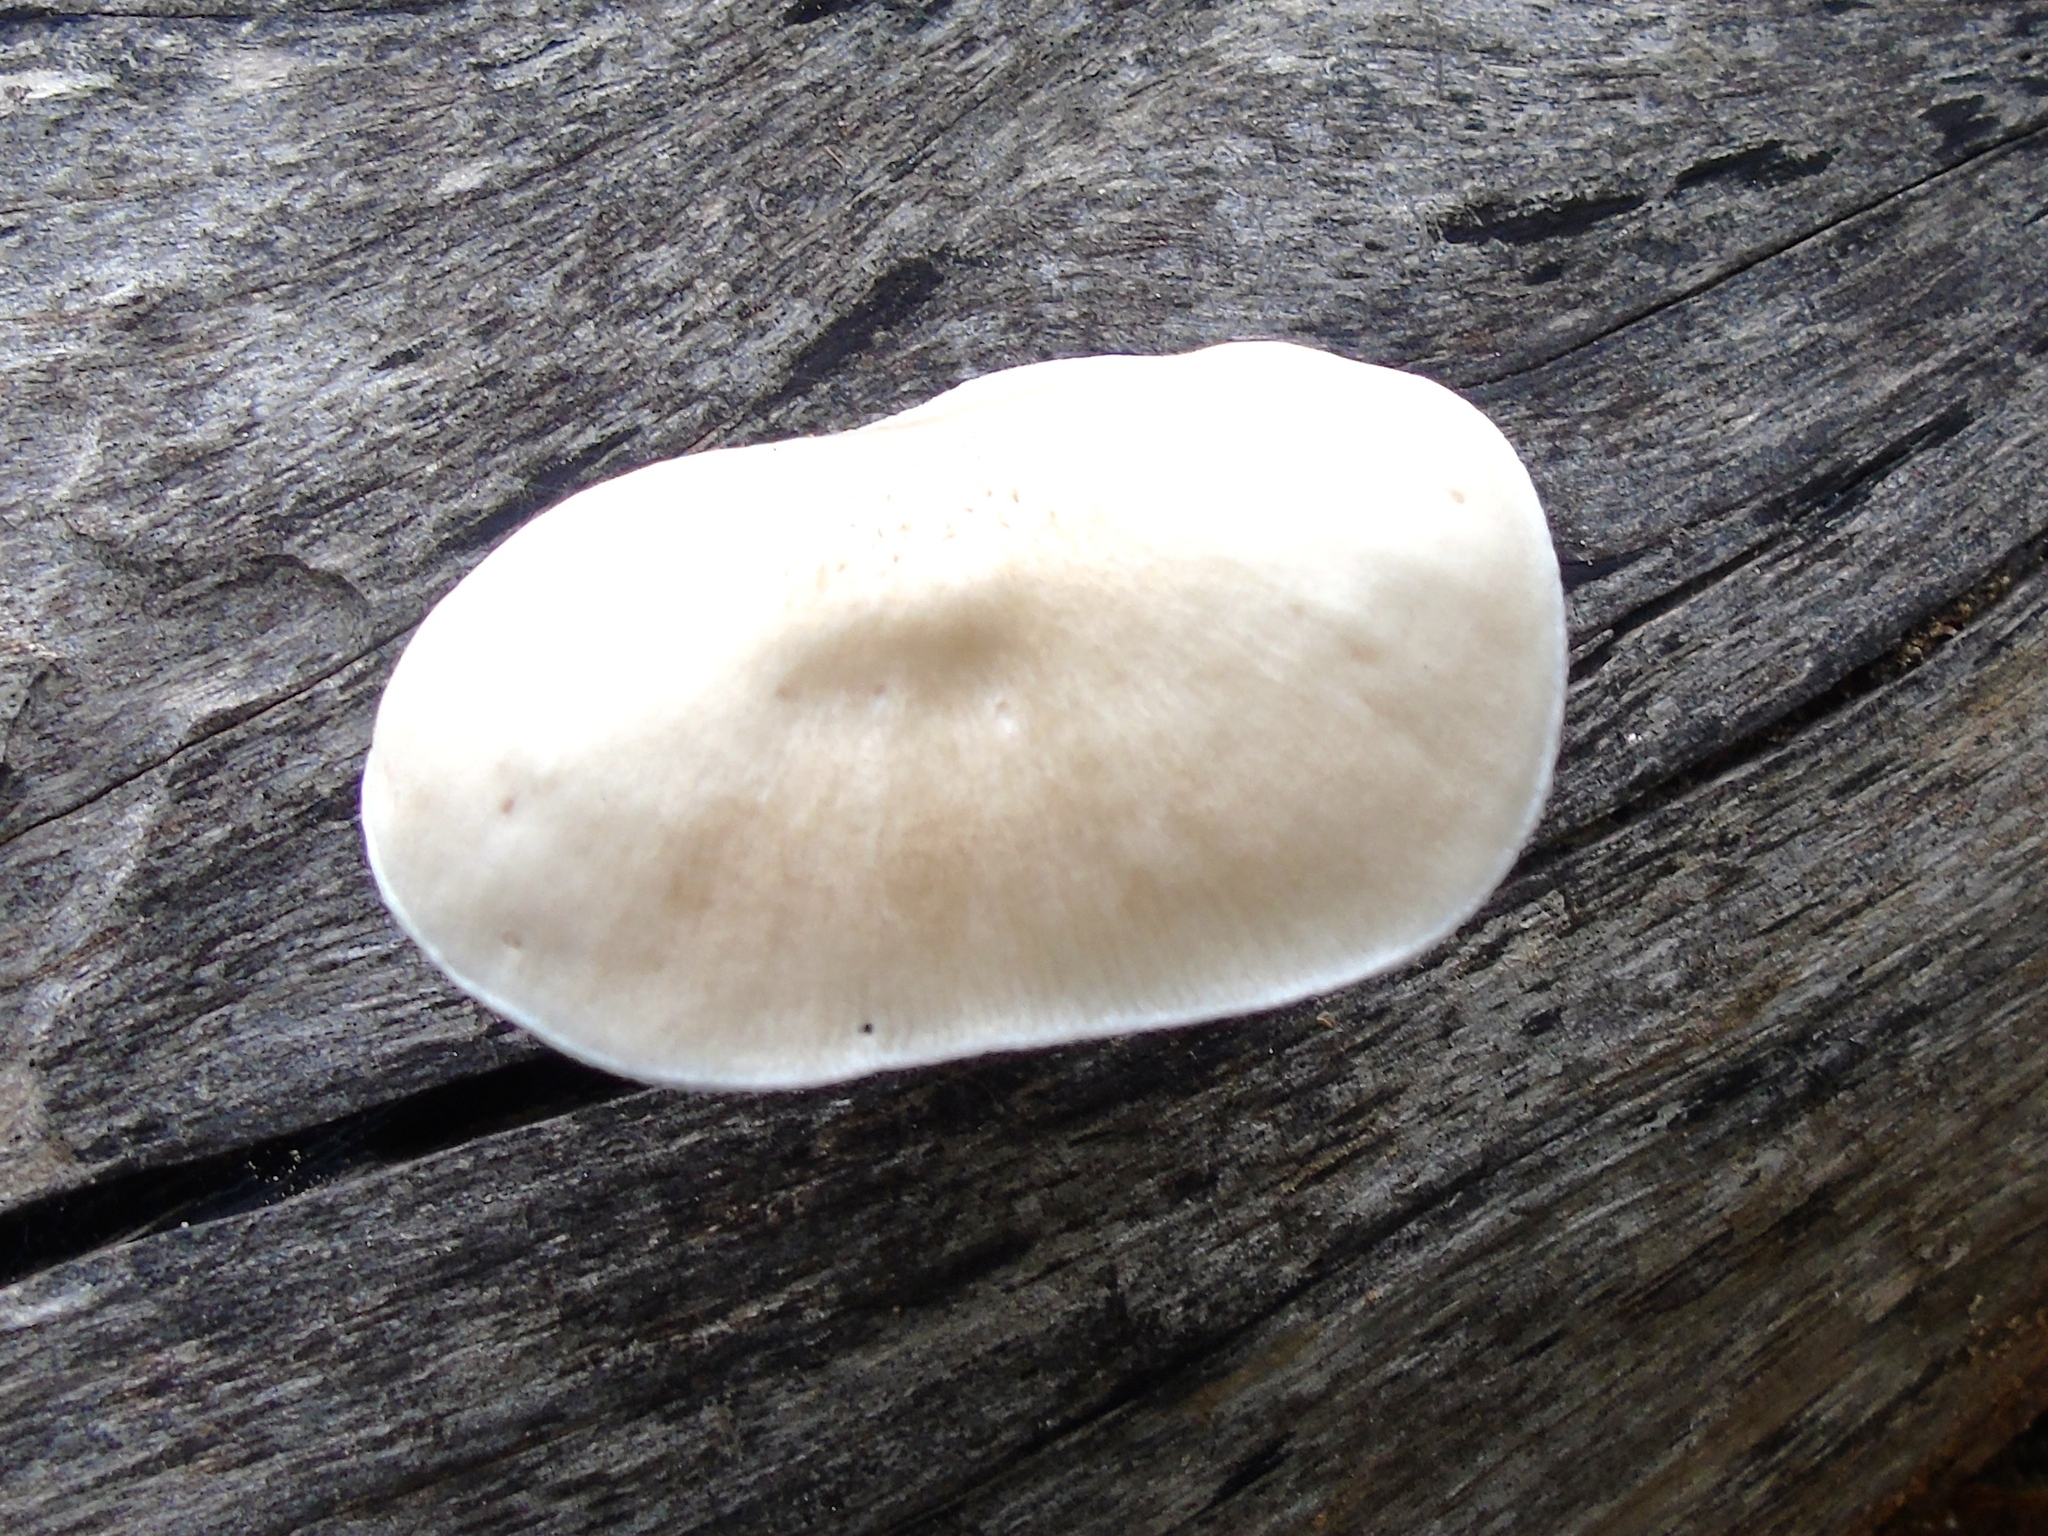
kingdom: Fungi
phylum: Basidiomycota
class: Agaricomycetes
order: Agaricales
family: Pluteaceae
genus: Pluteus
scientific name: Pluteus
